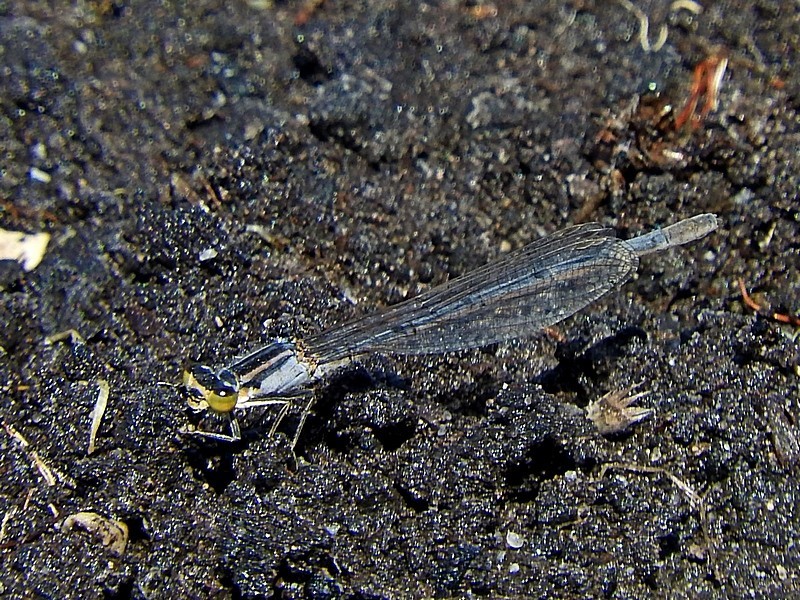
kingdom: Animalia
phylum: Arthropoda
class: Insecta
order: Odonata
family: Coenagrionidae
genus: Ischnura
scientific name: Ischnura heterosticta
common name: Common bluetail
